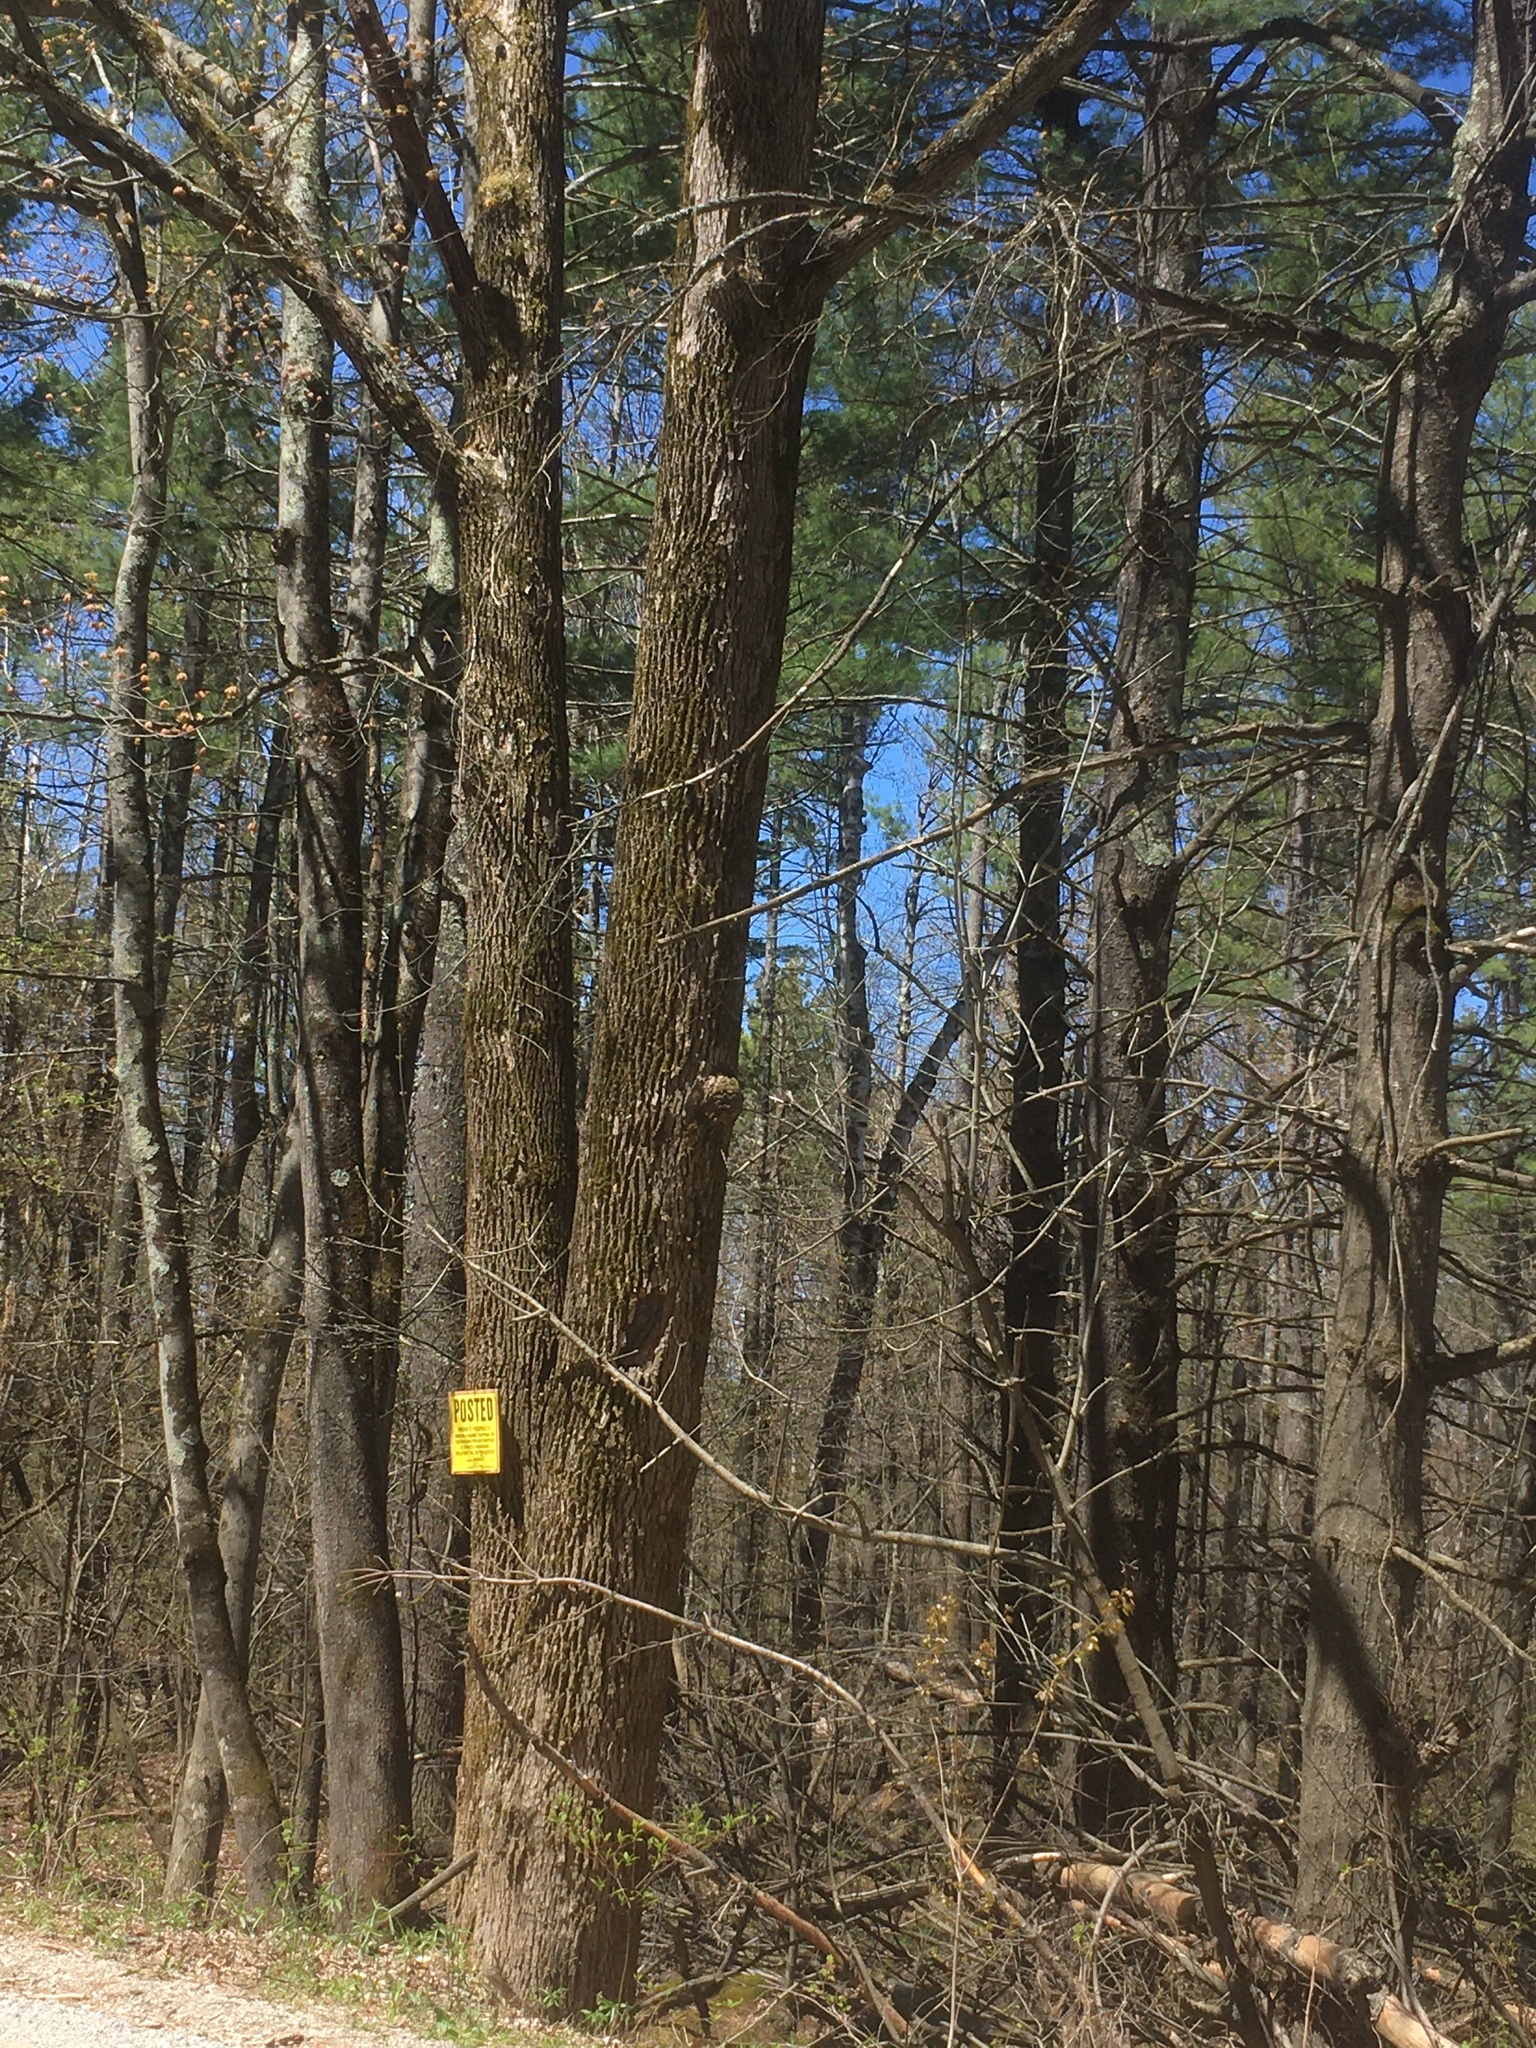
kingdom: Plantae
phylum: Tracheophyta
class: Magnoliopsida
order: Lamiales
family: Oleaceae
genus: Fraxinus
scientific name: Fraxinus americana
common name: White ash
